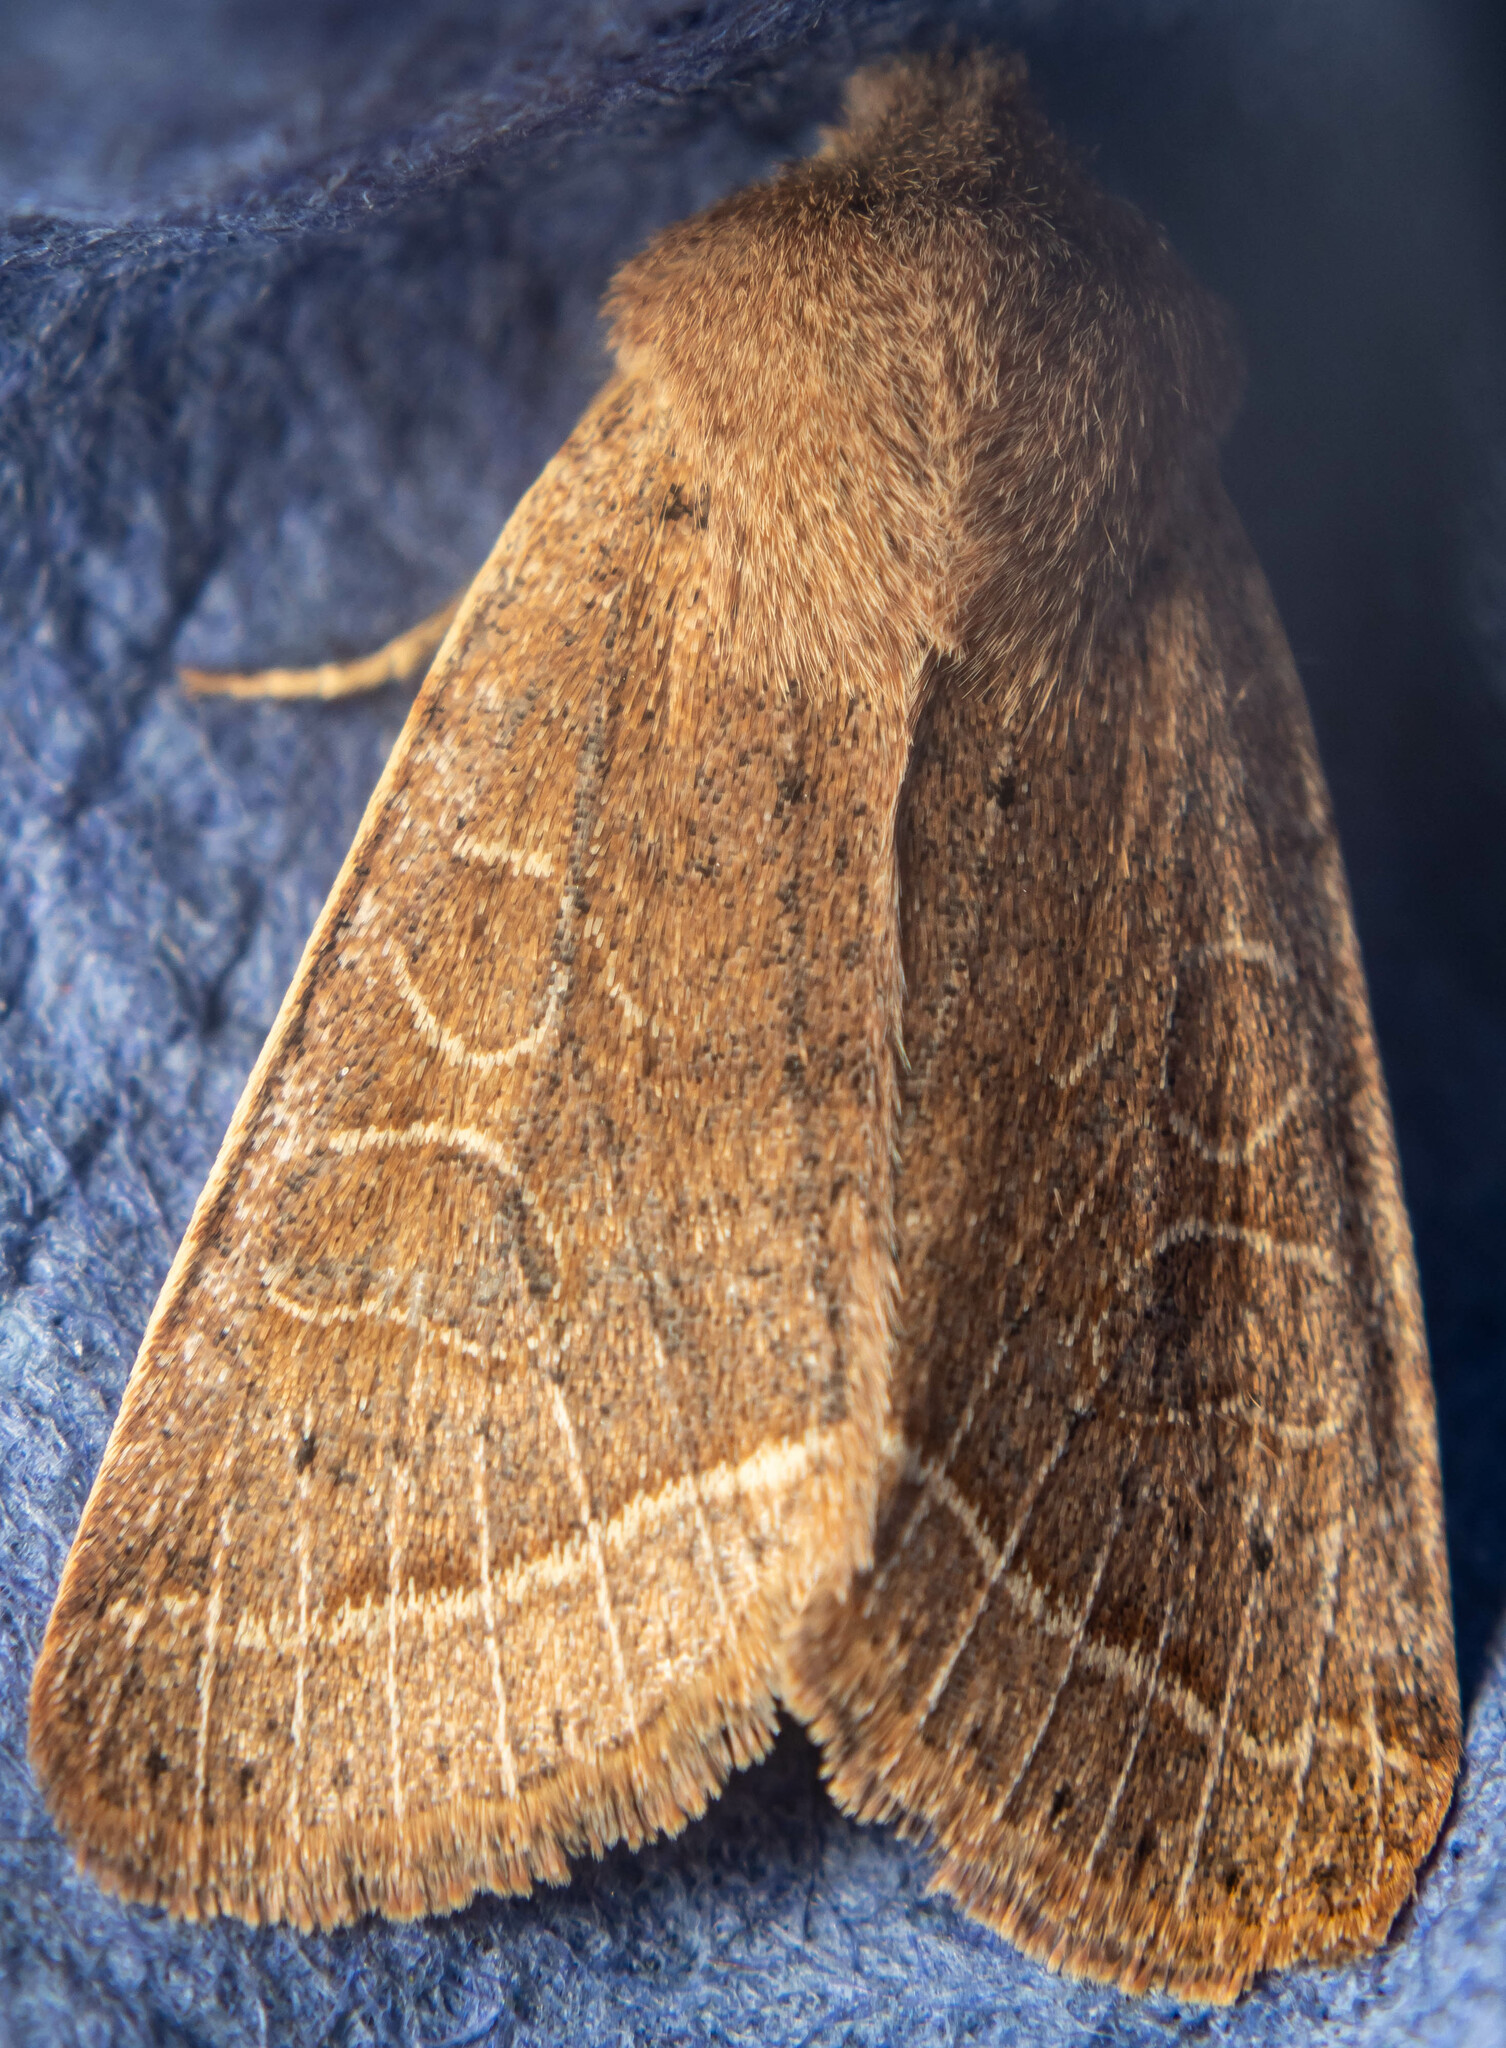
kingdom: Animalia
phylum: Arthropoda
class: Insecta
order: Lepidoptera
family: Noctuidae
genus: Orthosia
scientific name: Orthosia cerasi
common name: Common quaker
